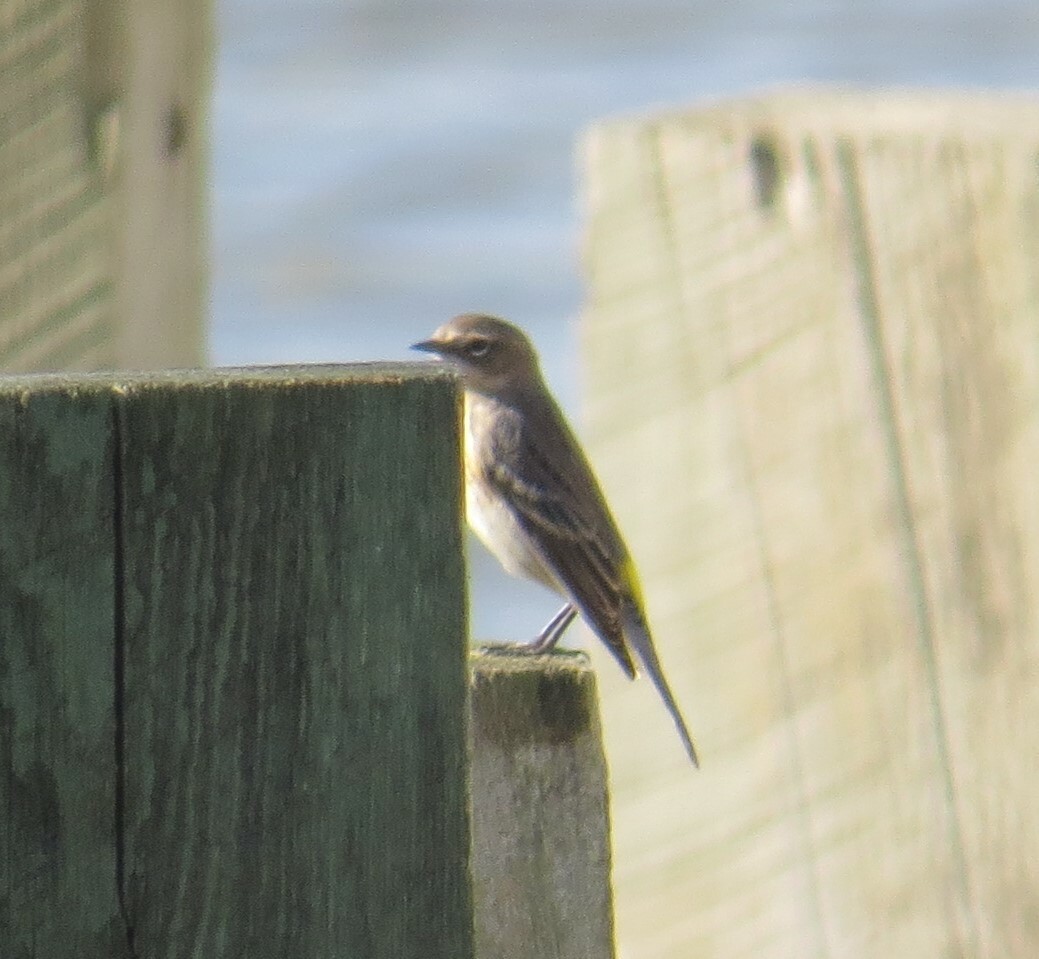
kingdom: Animalia
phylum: Chordata
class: Aves
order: Passeriformes
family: Parulidae
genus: Setophaga
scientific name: Setophaga coronata
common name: Myrtle warbler
